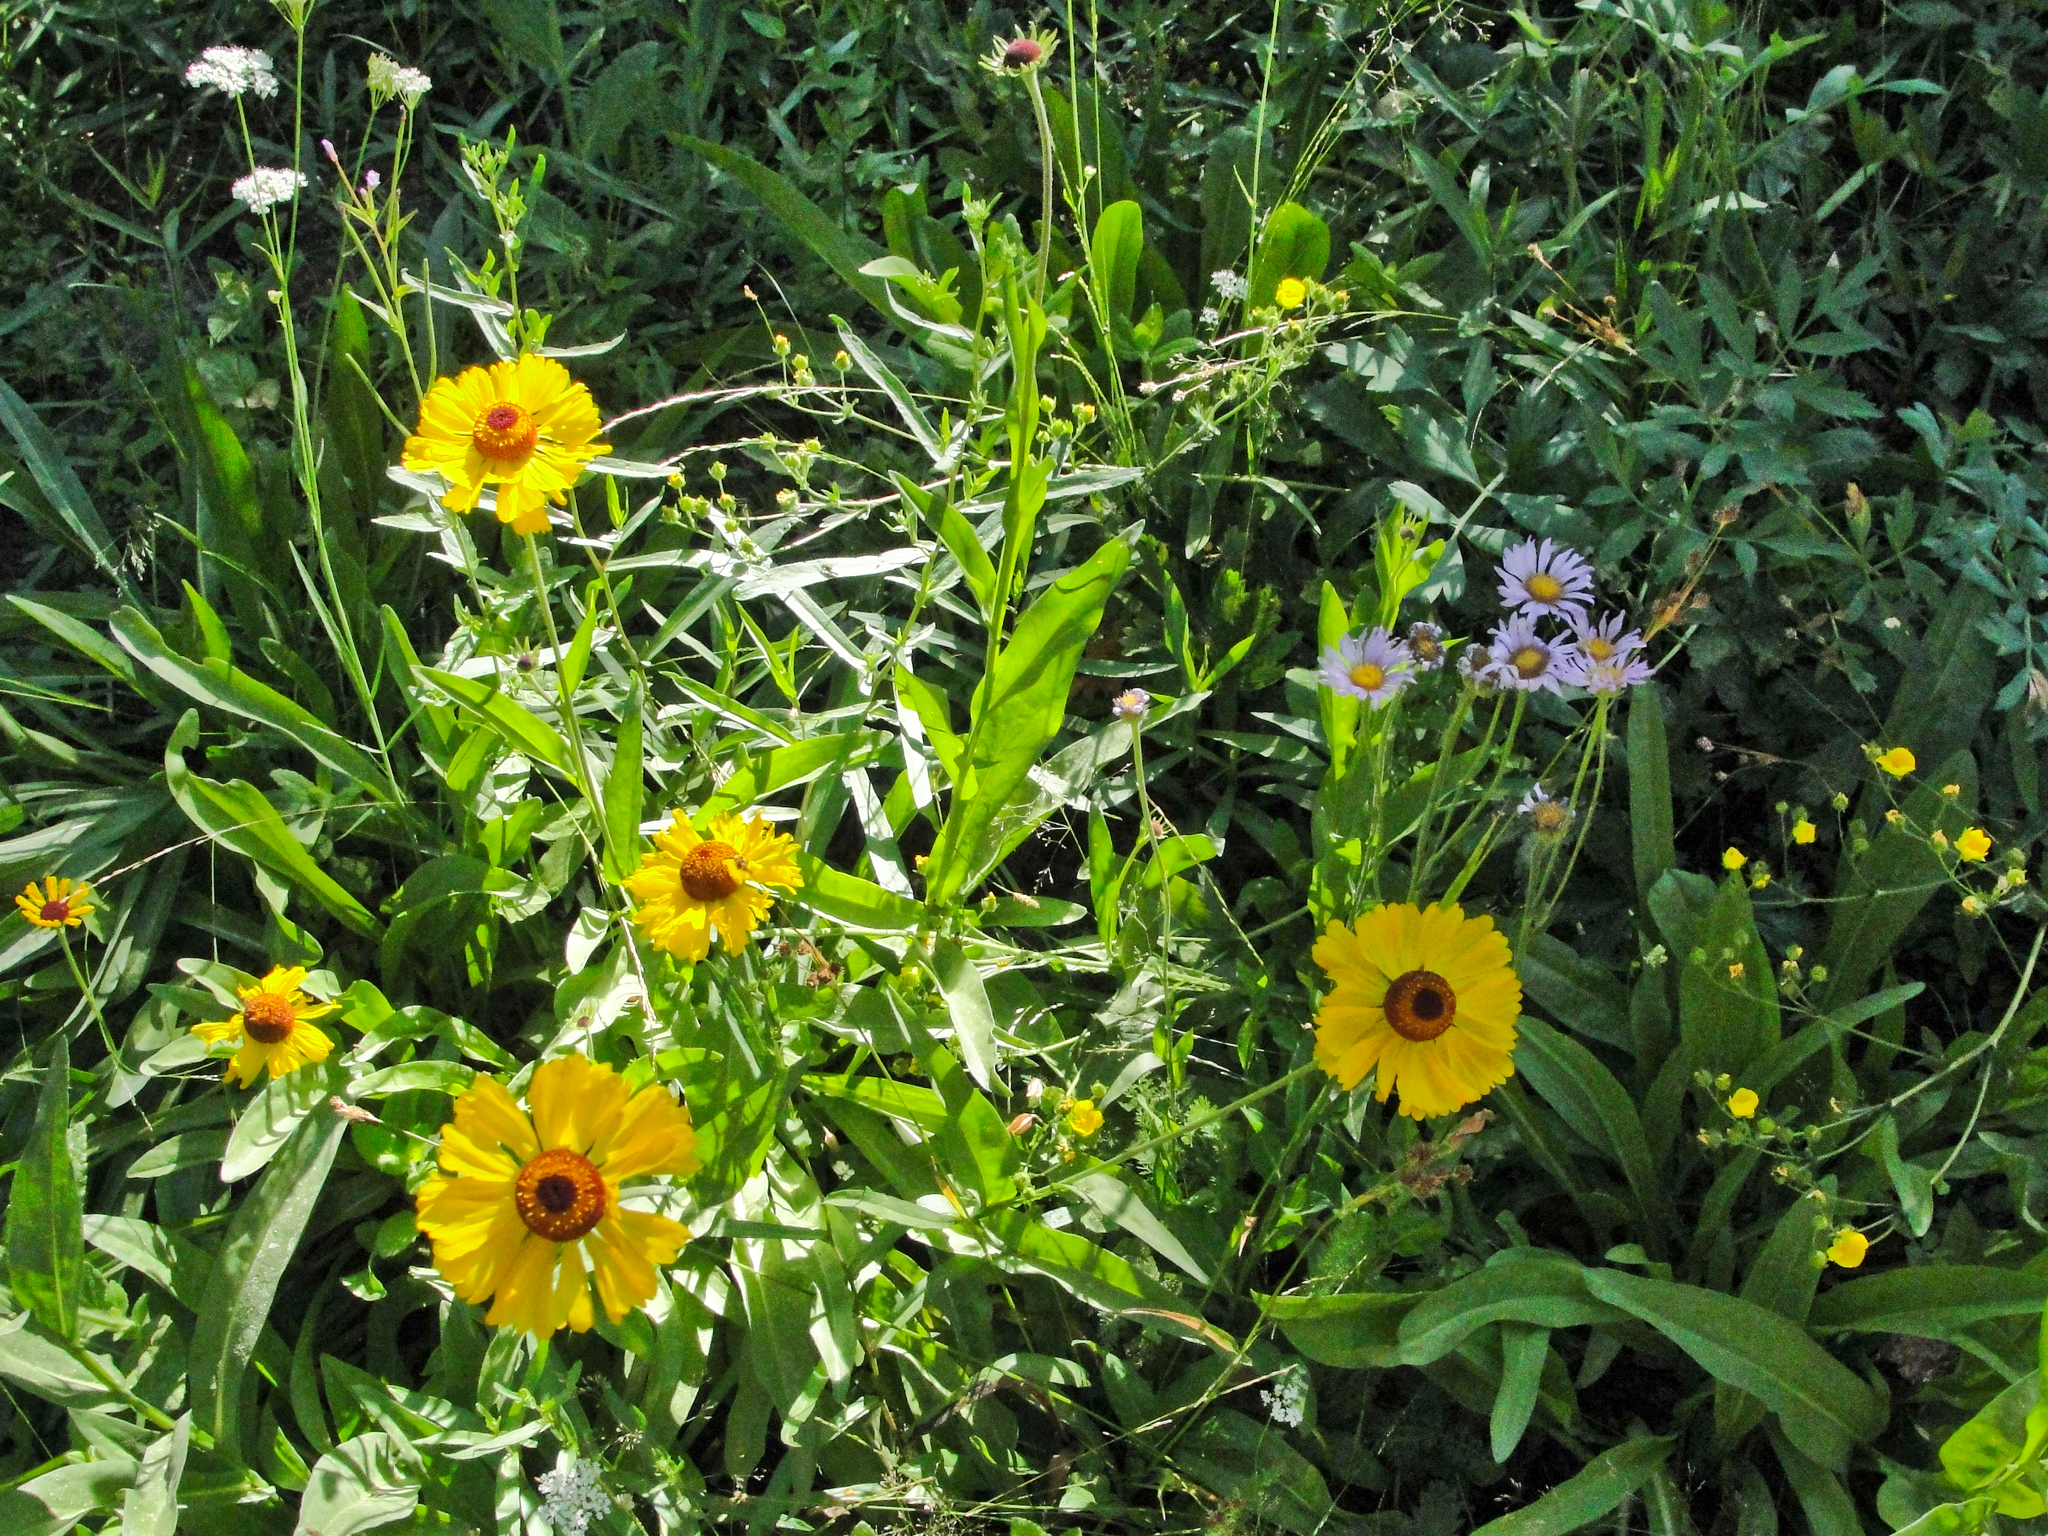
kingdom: Plantae
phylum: Tracheophyta
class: Magnoliopsida
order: Asterales
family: Asteraceae
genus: Helenium
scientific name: Helenium bigelovii
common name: Bigelow's sneezeweed
